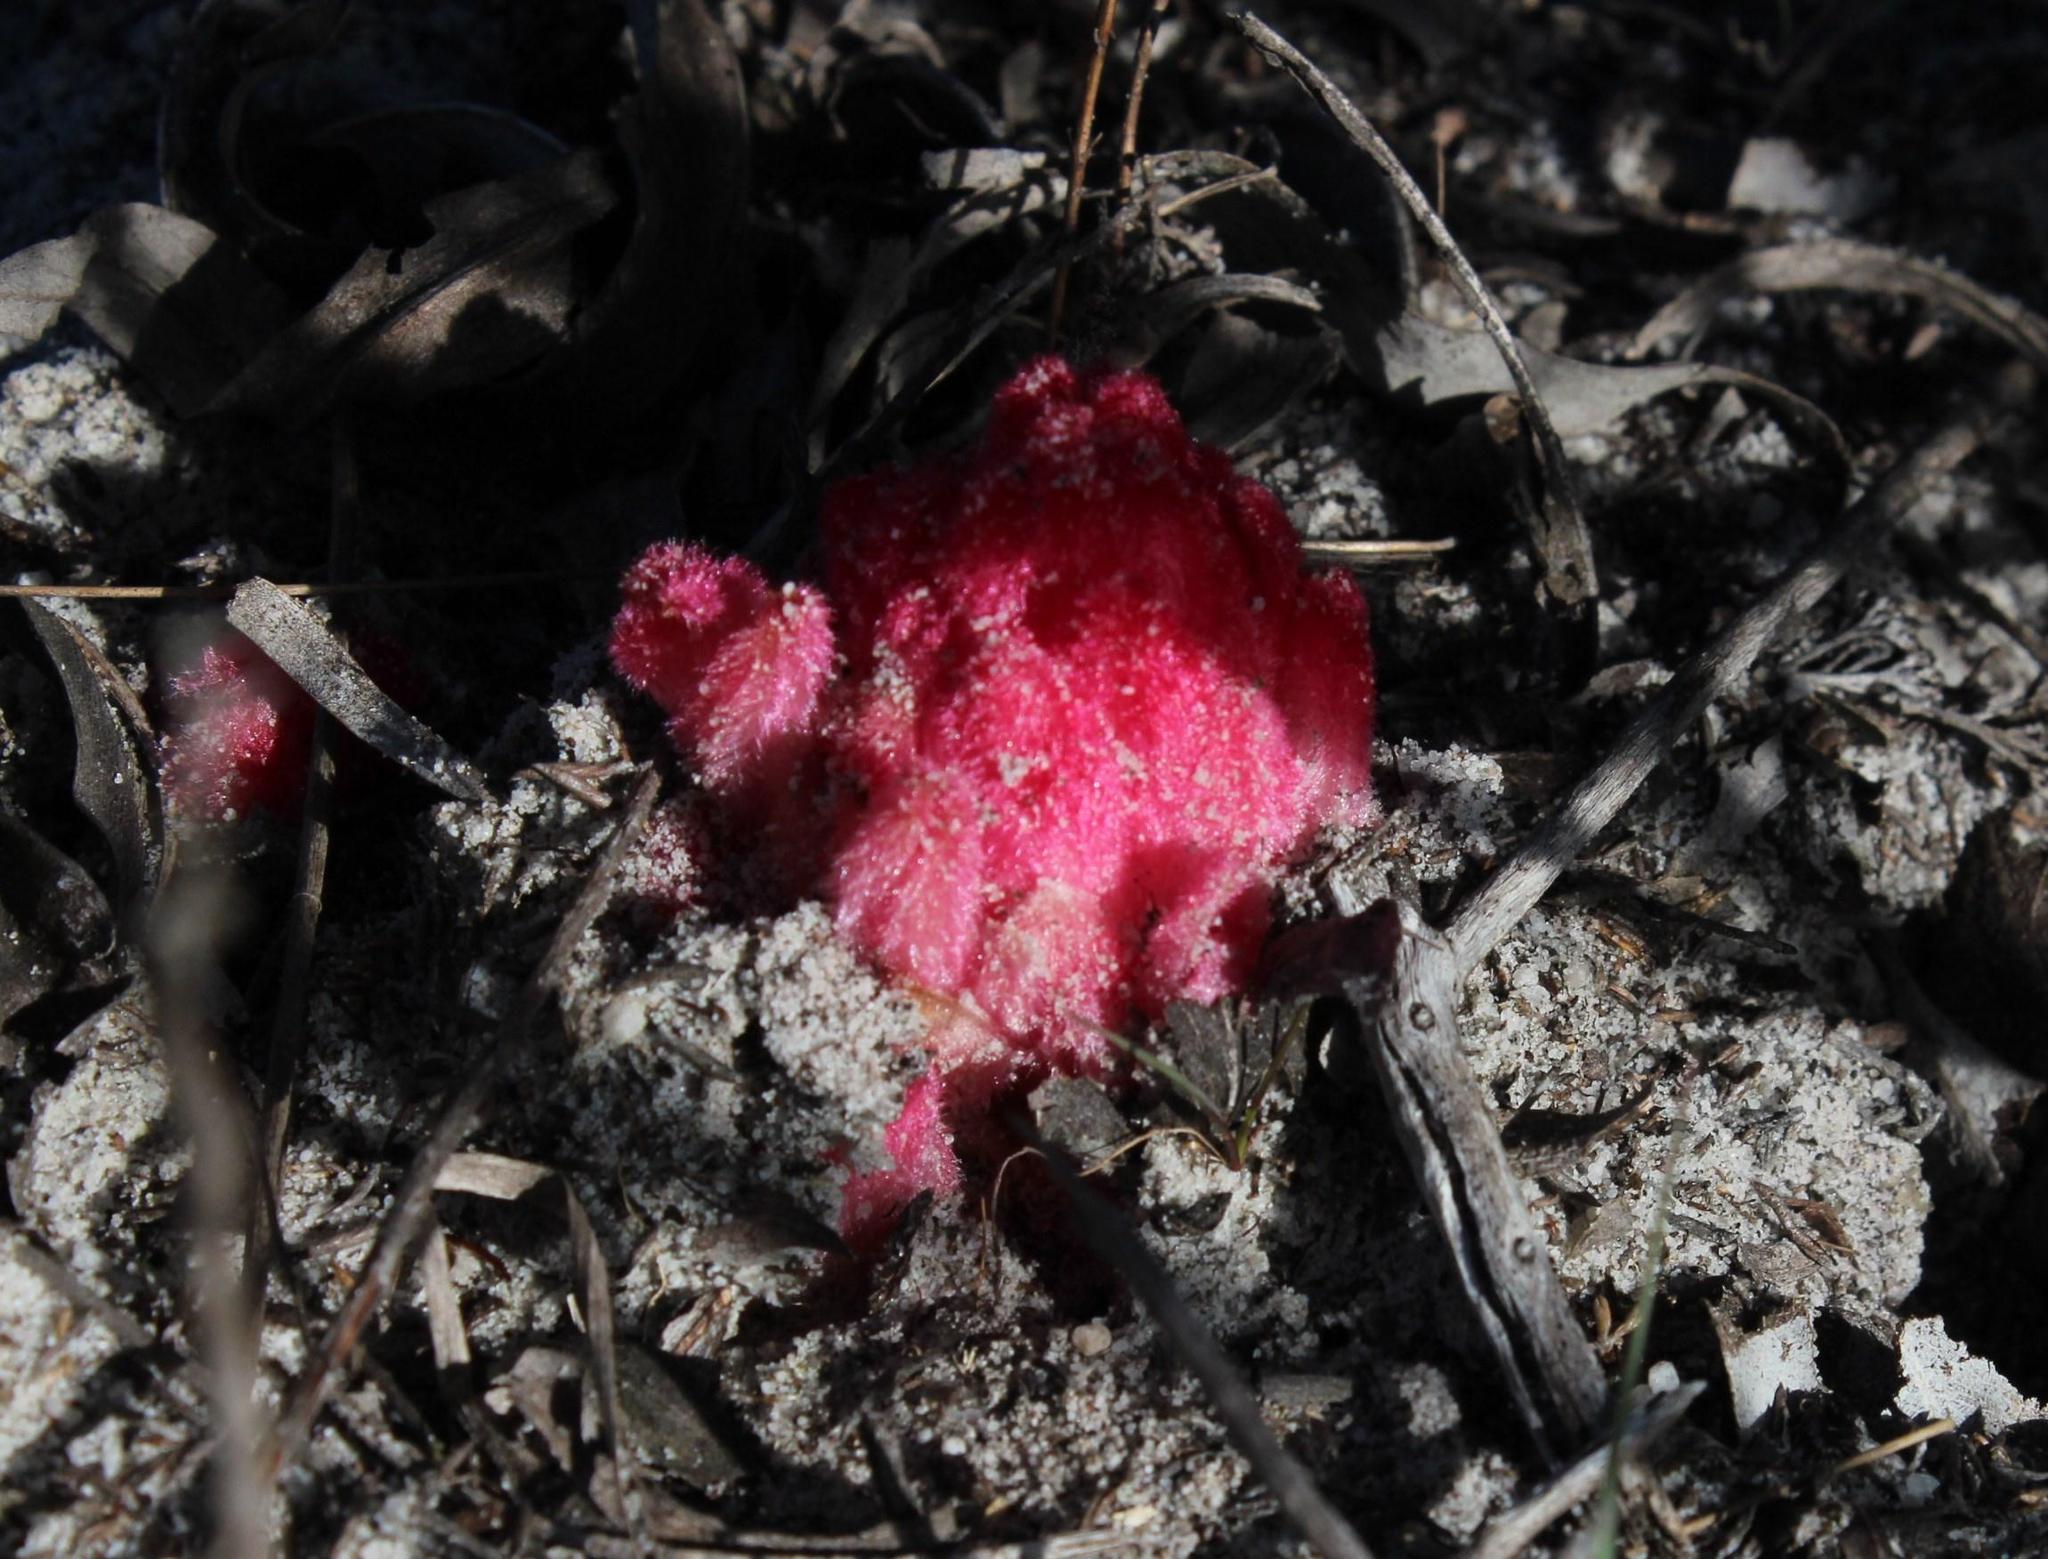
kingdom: Plantae
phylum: Tracheophyta
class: Magnoliopsida
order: Lamiales
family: Orobanchaceae
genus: Hyobanche
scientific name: Hyobanche sanguinea
